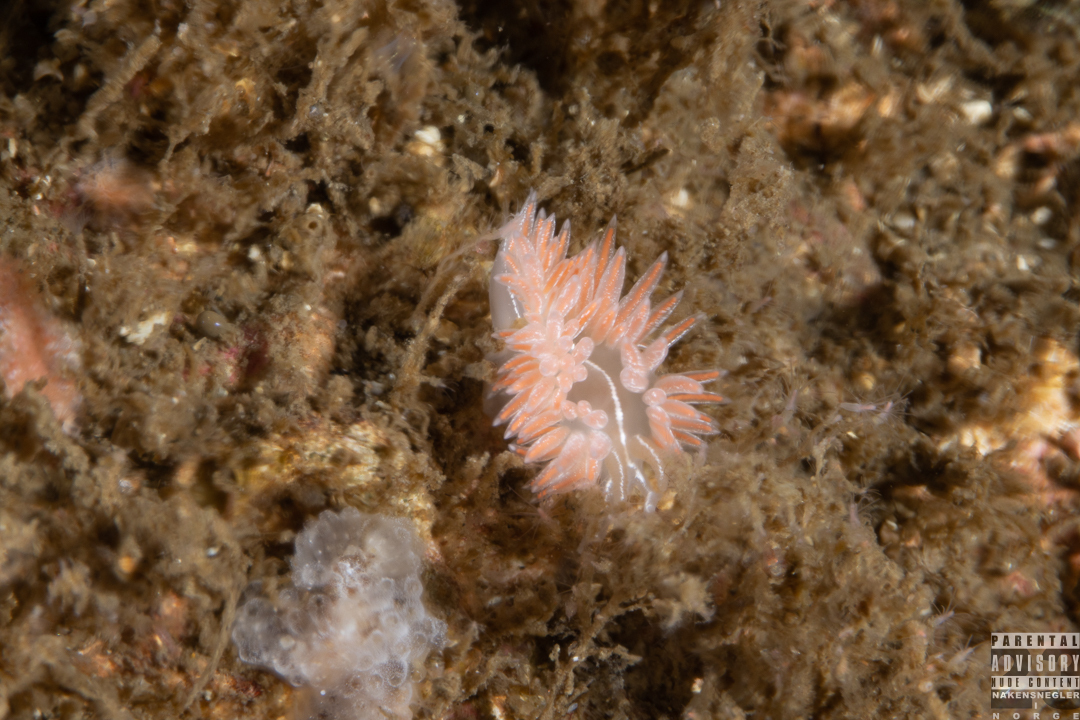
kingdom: Animalia
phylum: Mollusca
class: Gastropoda
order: Nudibranchia
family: Coryphellidae
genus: Coryphella
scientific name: Coryphella chriskaugei
